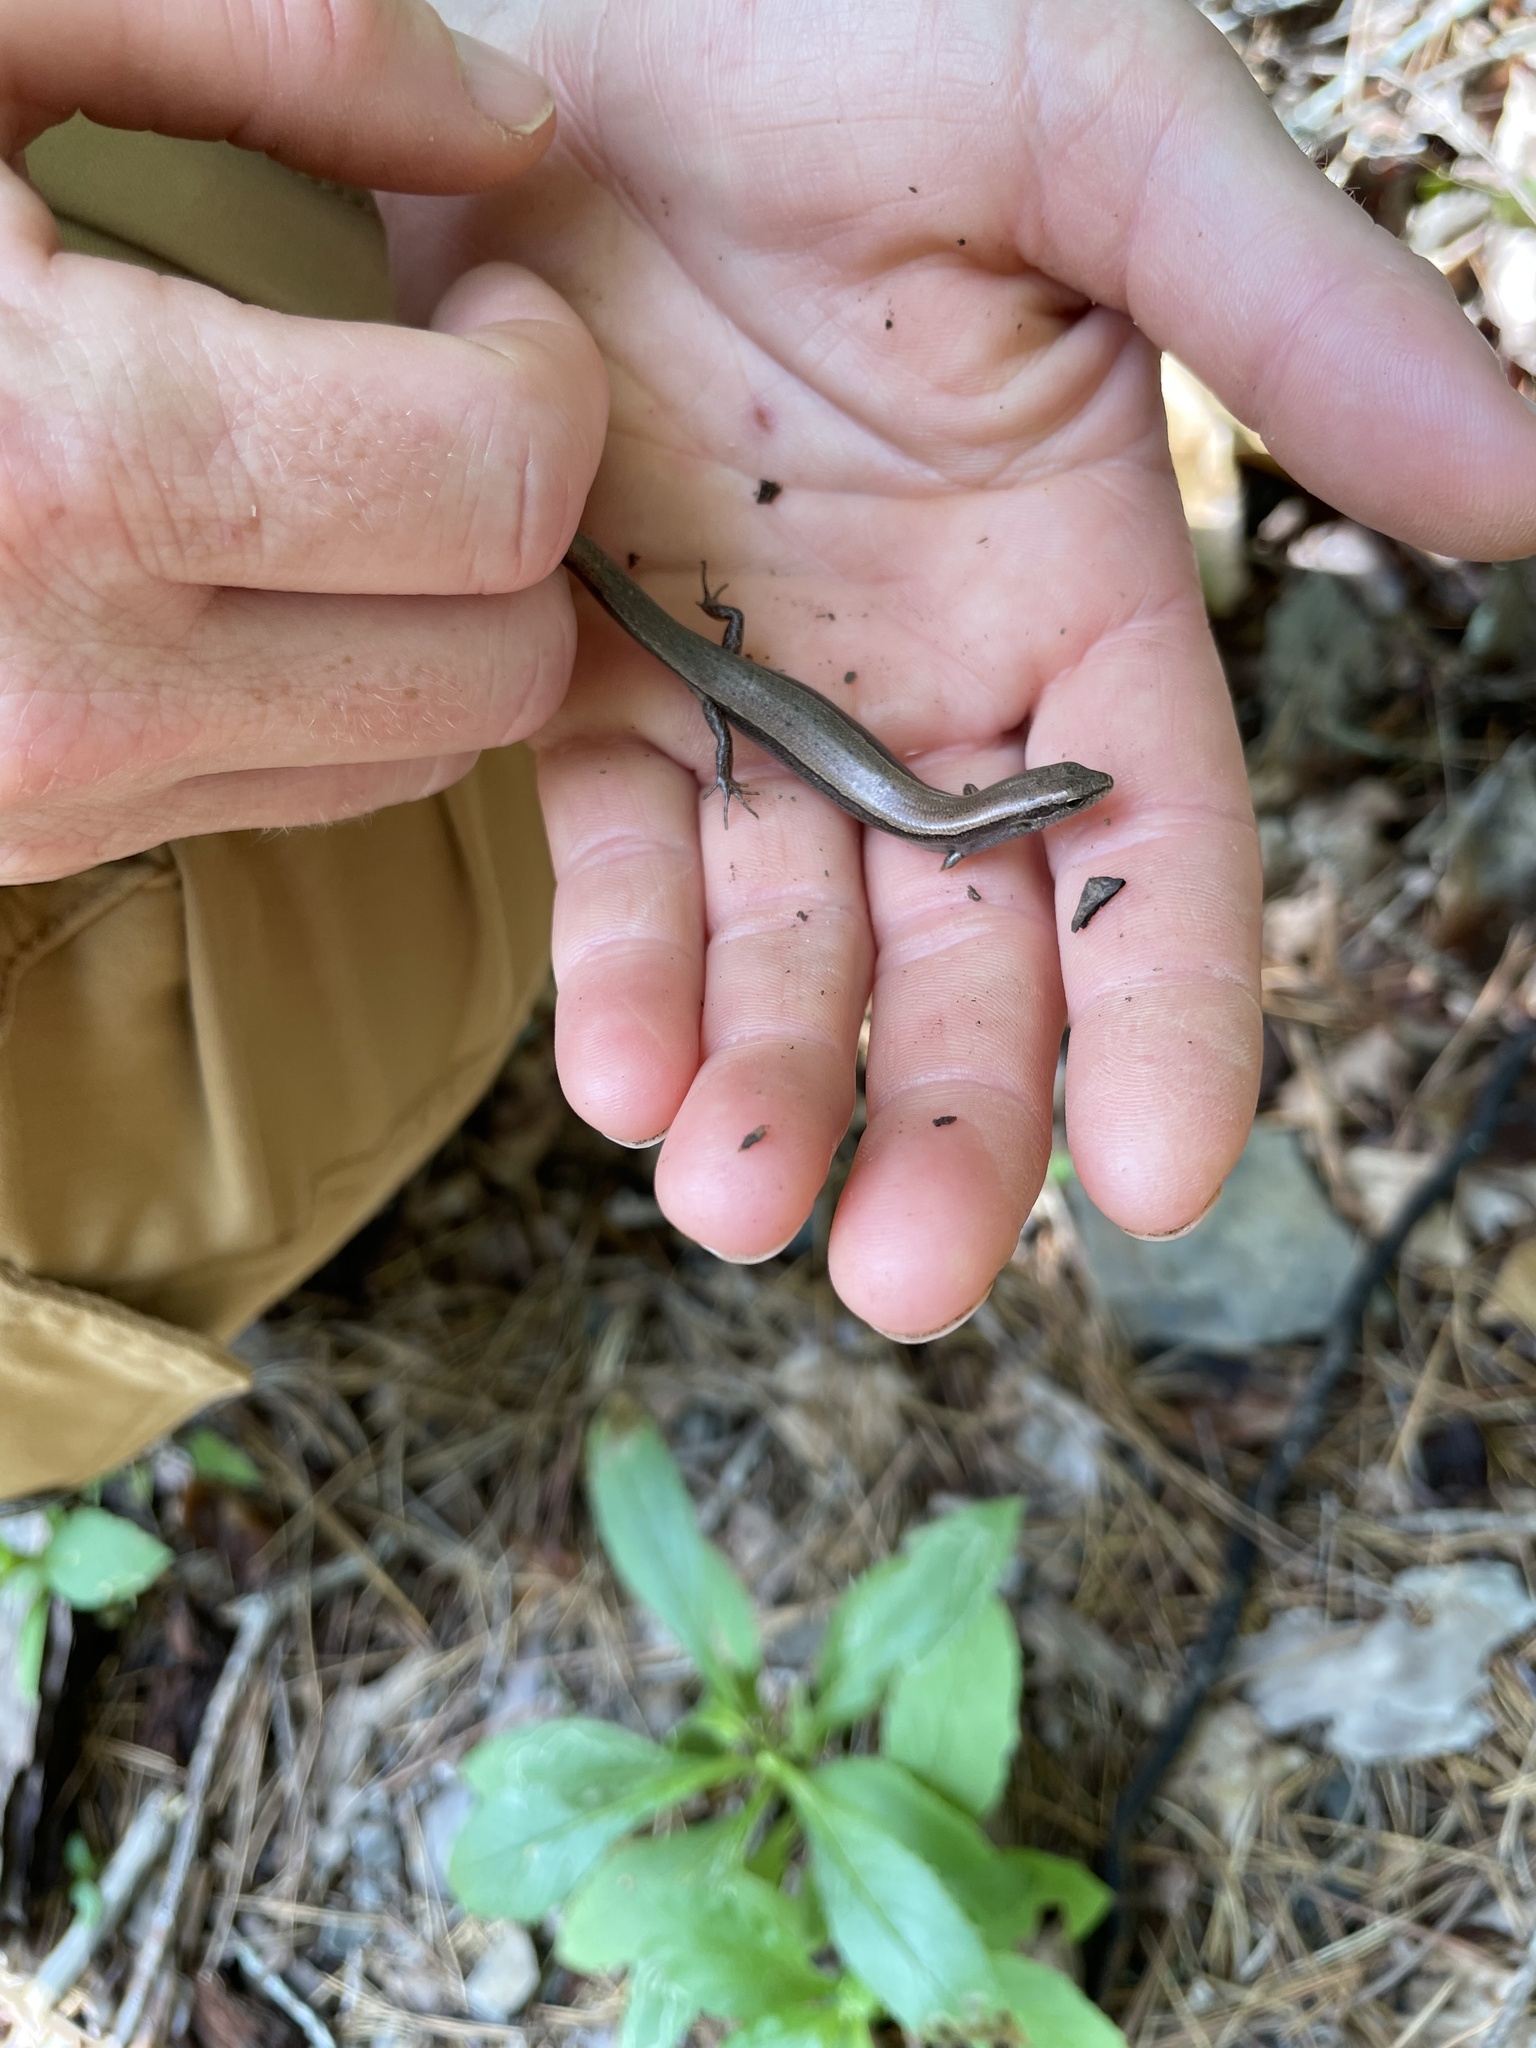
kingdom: Animalia
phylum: Chordata
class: Squamata
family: Scincidae
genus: Scincella
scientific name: Scincella lateralis
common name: Ground skink
